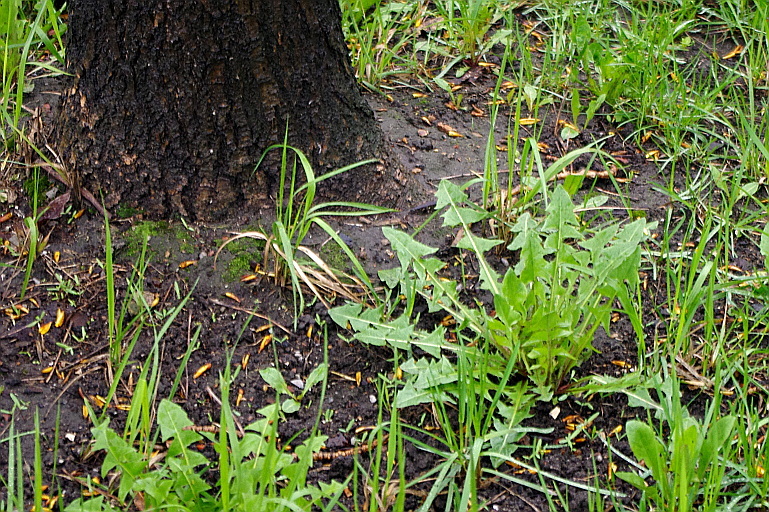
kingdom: Plantae
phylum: Tracheophyta
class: Magnoliopsida
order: Asterales
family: Asteraceae
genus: Taraxacum
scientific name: Taraxacum officinale
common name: Common dandelion
